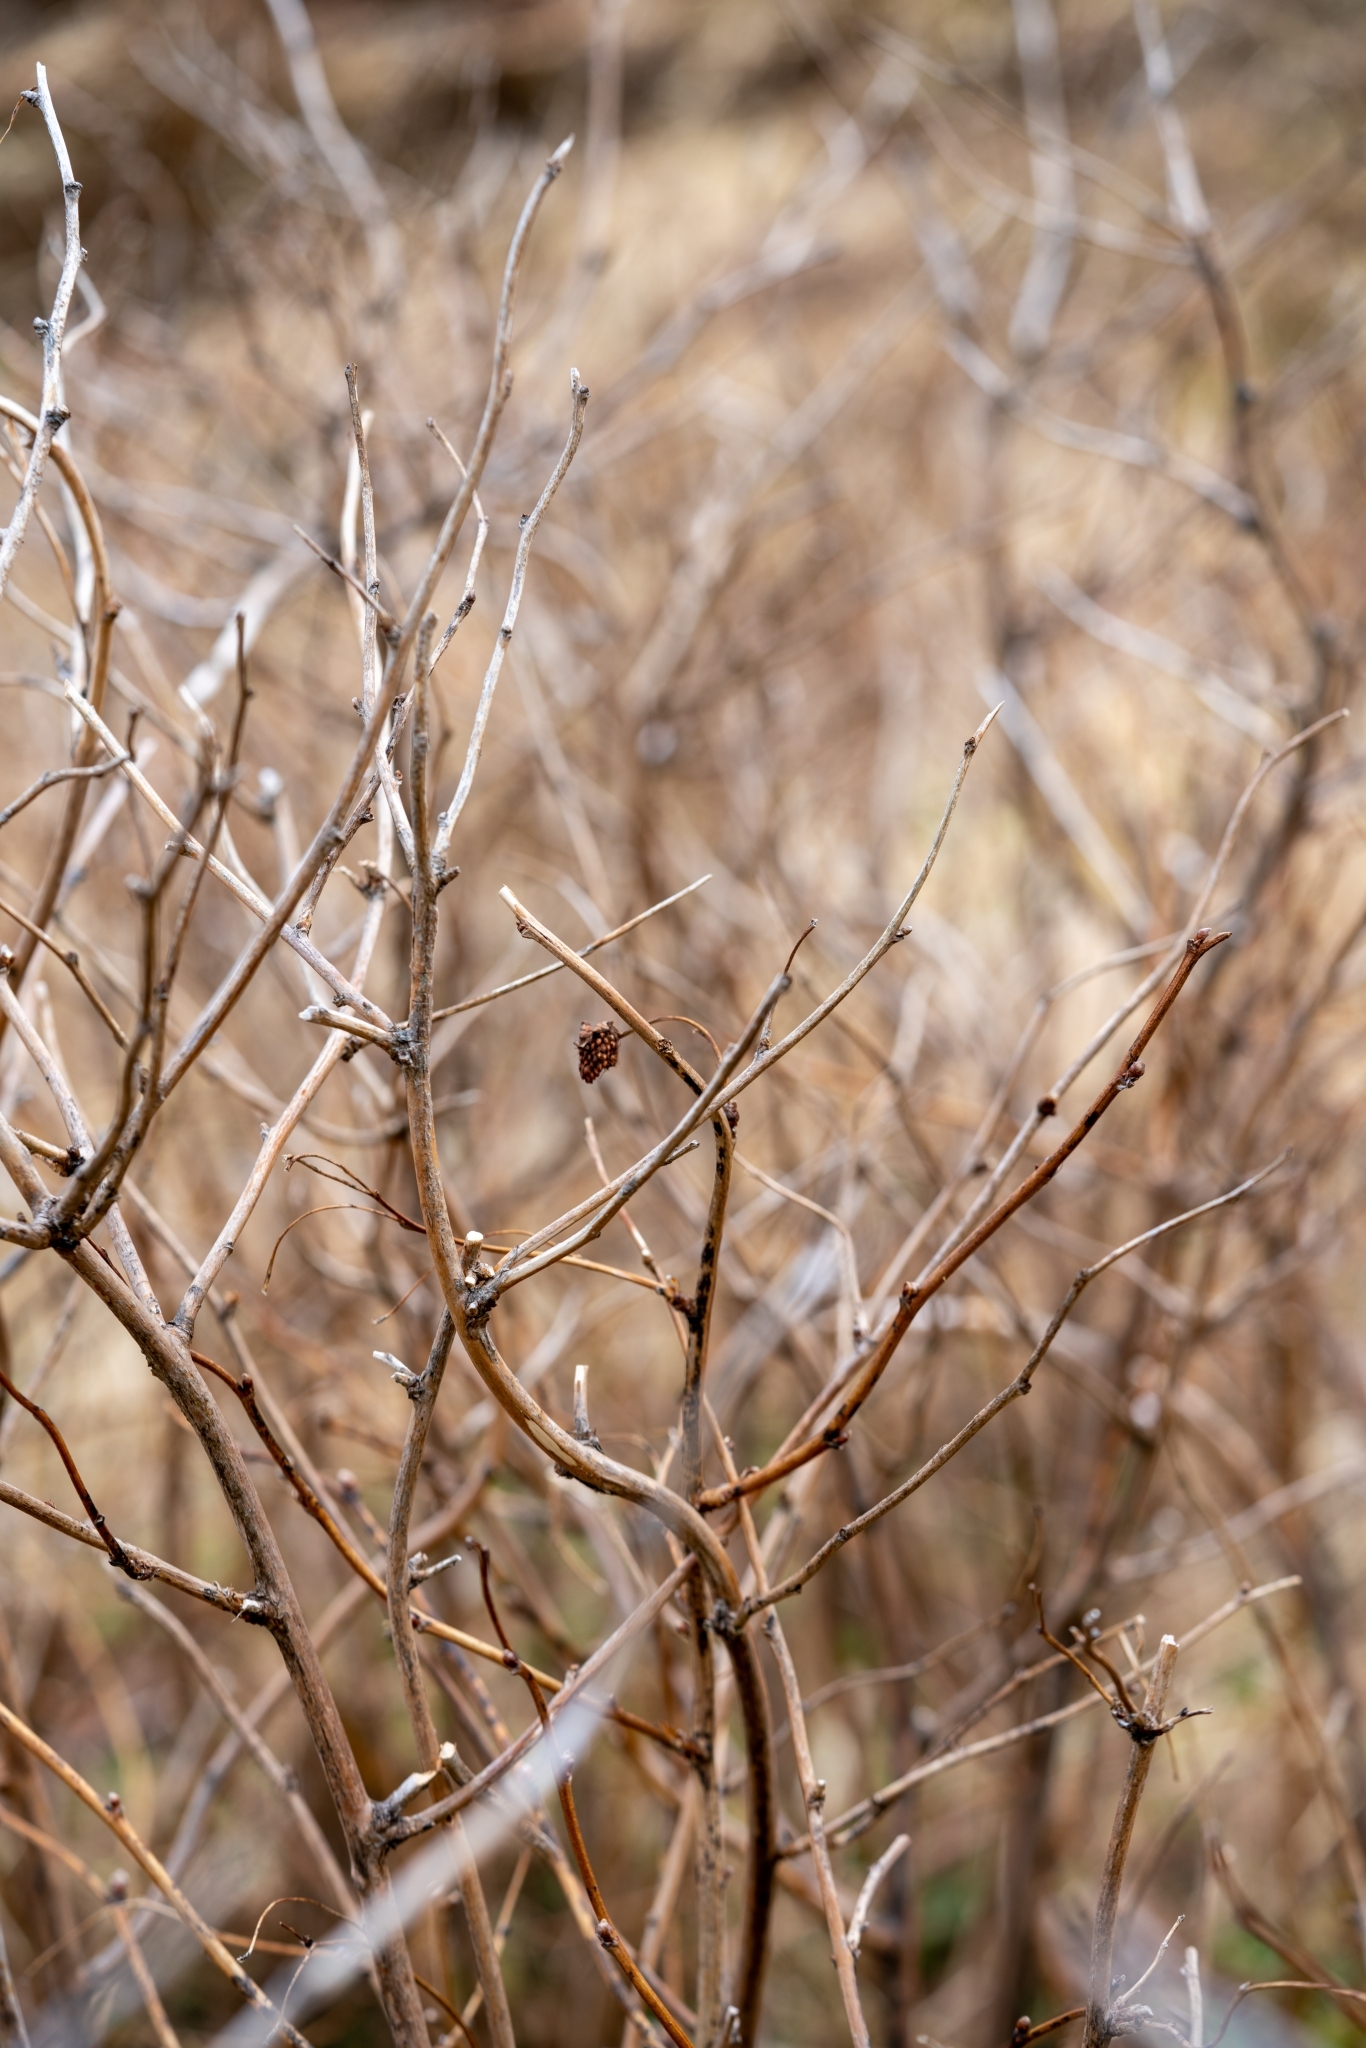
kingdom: Plantae
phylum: Tracheophyta
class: Magnoliopsida
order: Rosales
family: Rosaceae
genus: Rubus
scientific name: Rubus spectabilis
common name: Salmonberry
